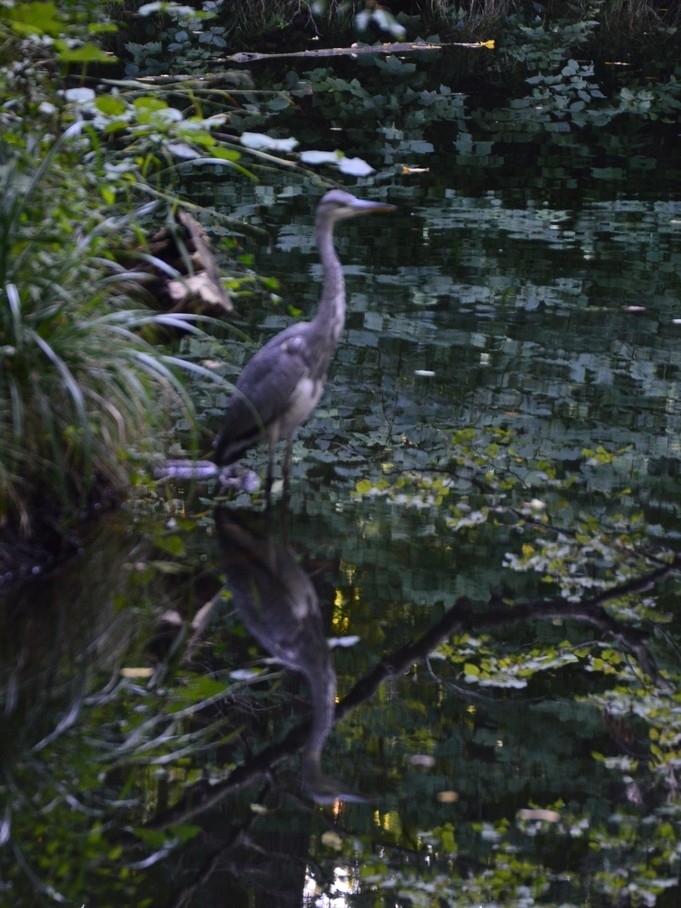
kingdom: Animalia
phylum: Chordata
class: Aves
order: Pelecaniformes
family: Ardeidae
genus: Ardea
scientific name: Ardea cinerea
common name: Grey heron
